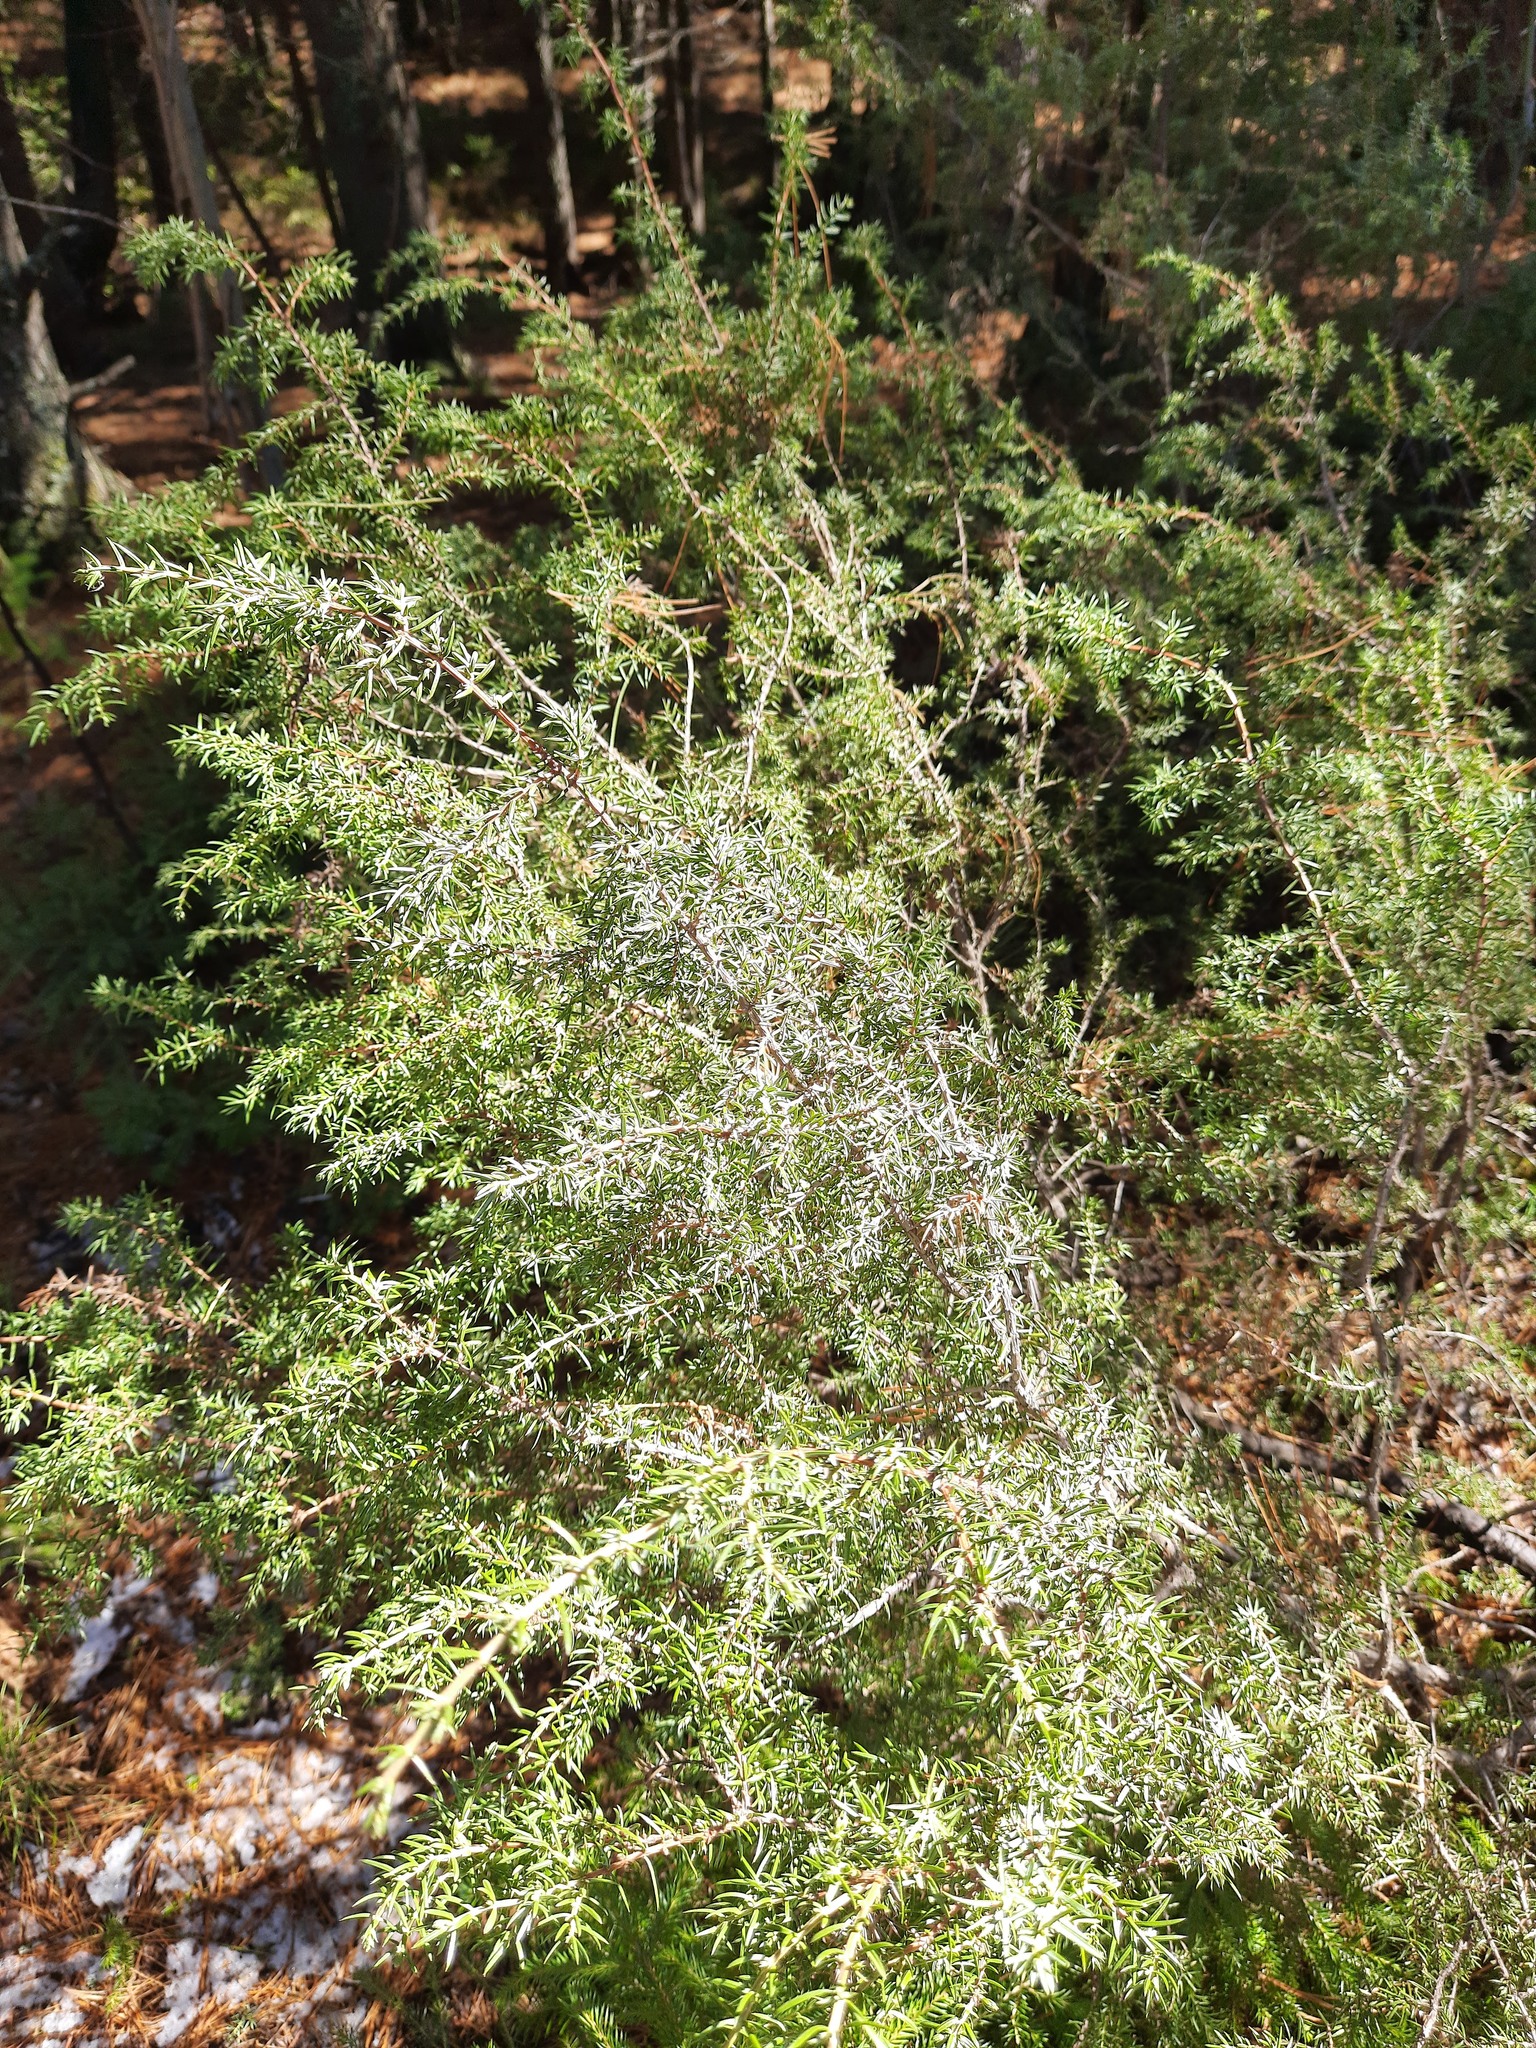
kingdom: Plantae
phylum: Tracheophyta
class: Pinopsida
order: Pinales
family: Cupressaceae
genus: Juniperus
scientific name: Juniperus communis
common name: Common juniper
